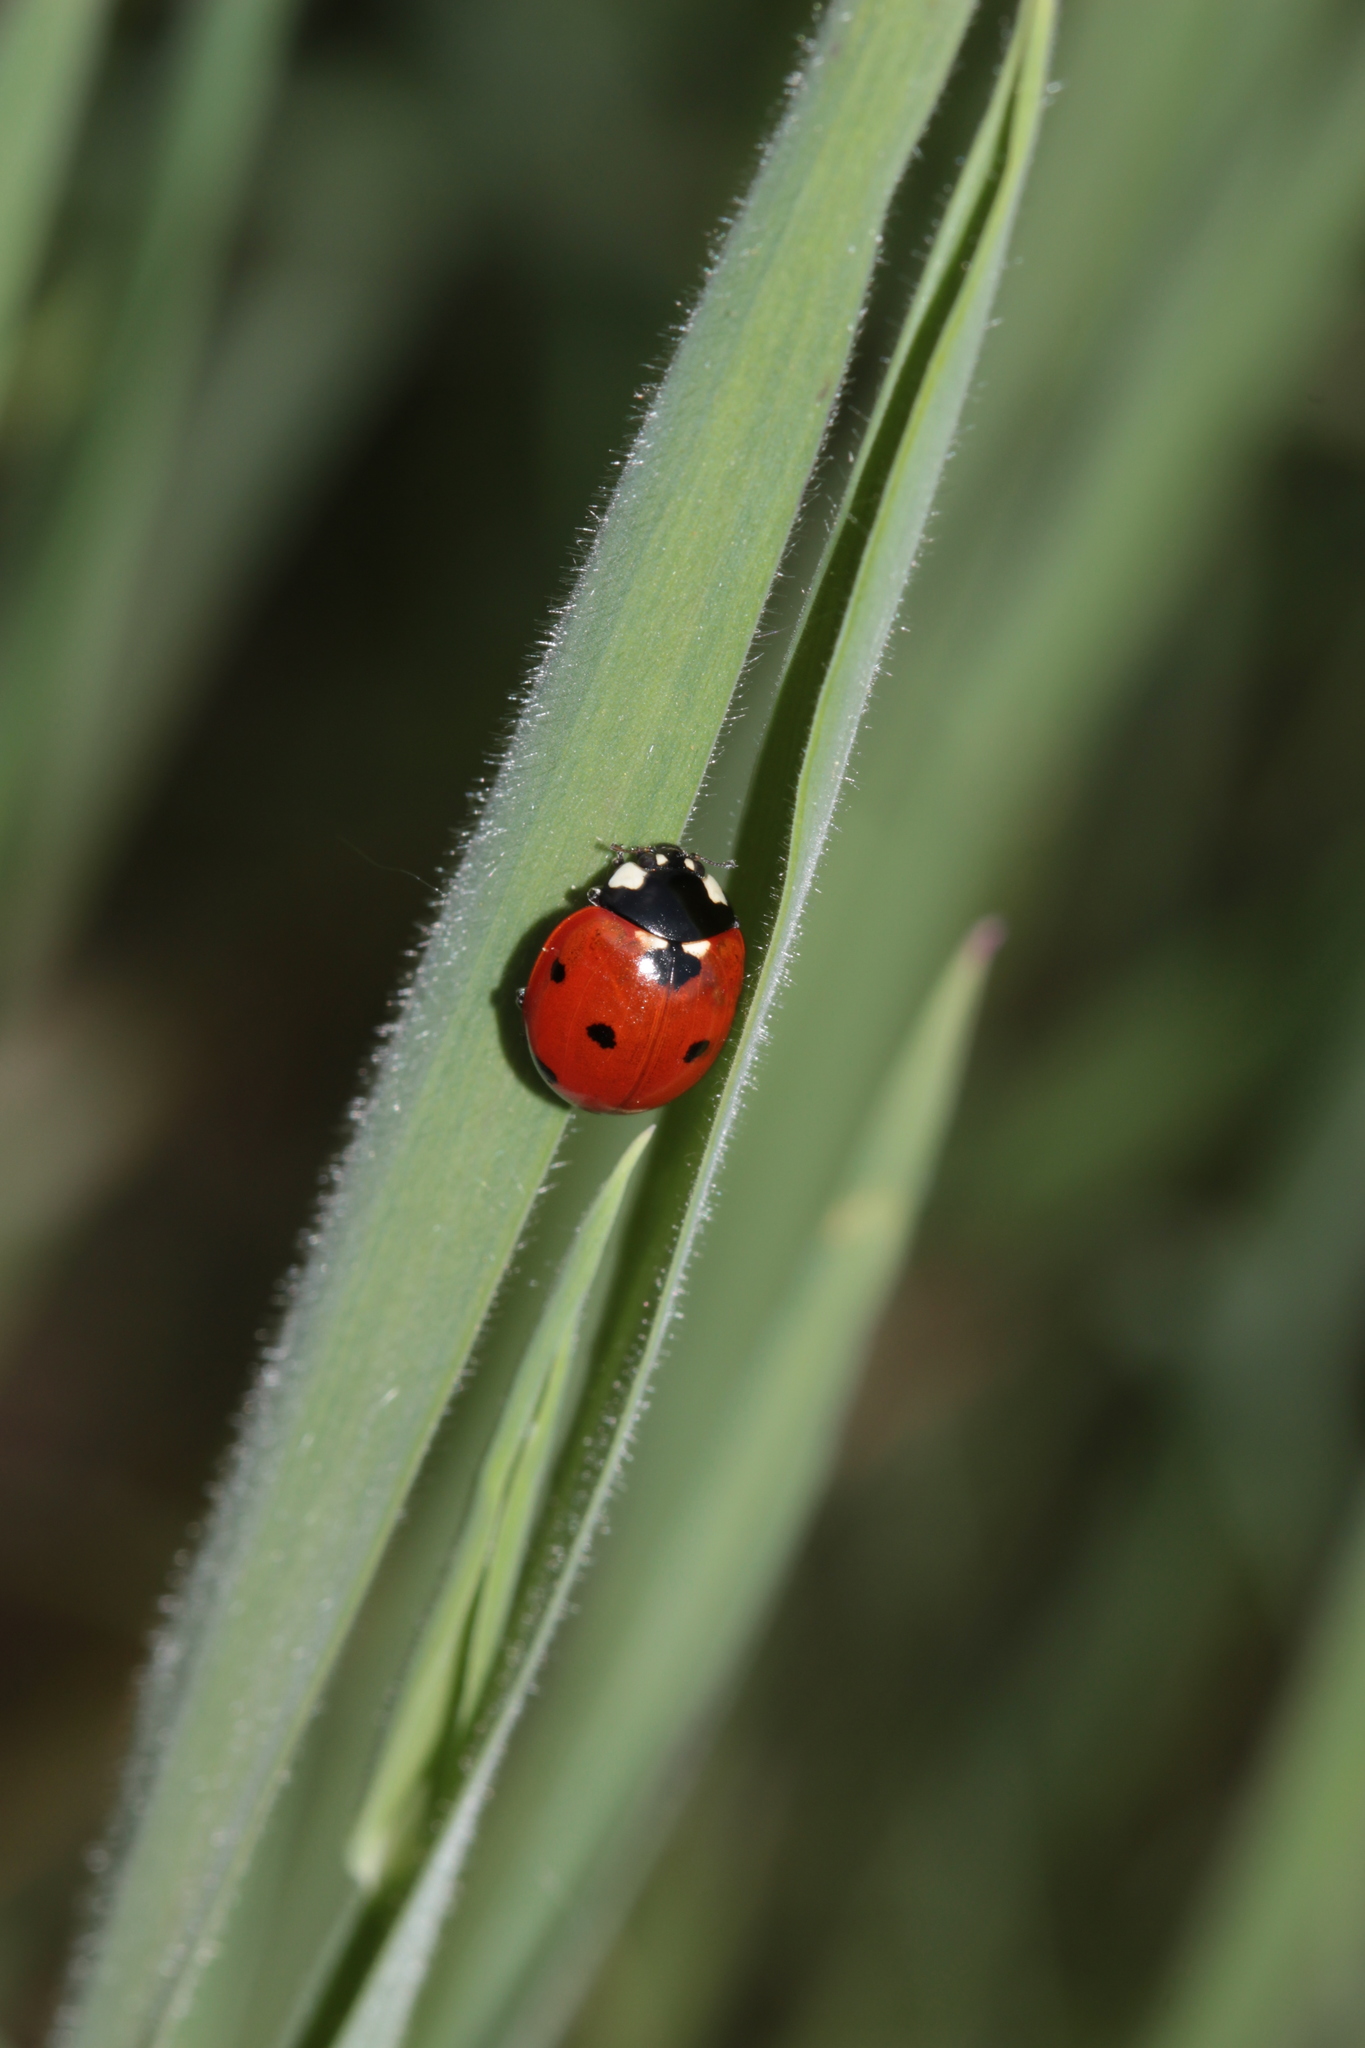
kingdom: Animalia
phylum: Arthropoda
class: Insecta
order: Coleoptera
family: Coccinellidae
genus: Coccinella
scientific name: Coccinella septempunctata
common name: Sevenspotted lady beetle
